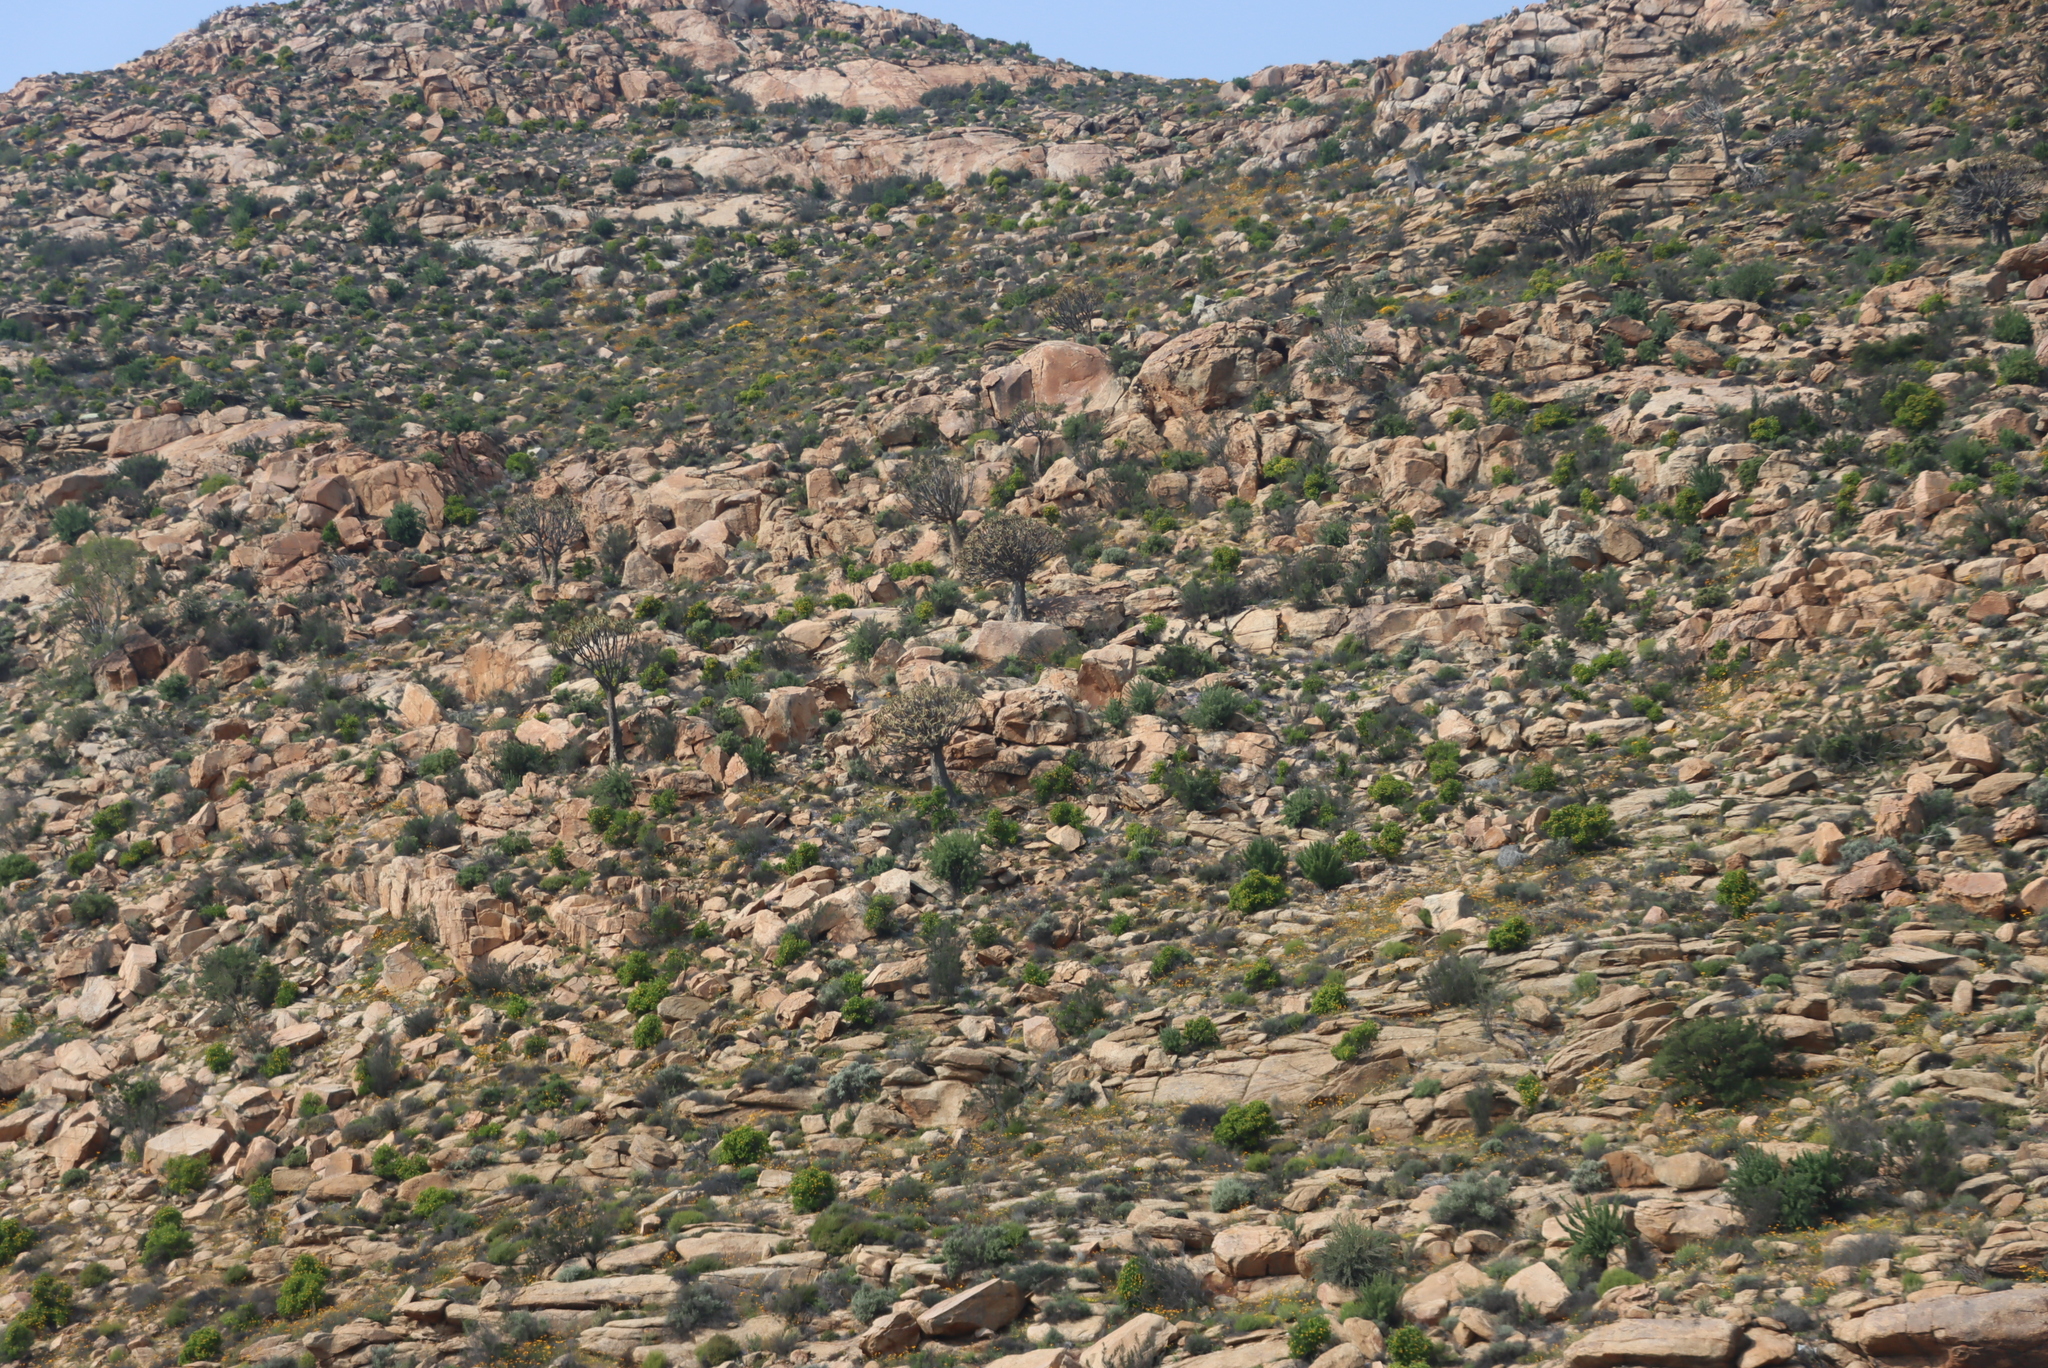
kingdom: Plantae
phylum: Tracheophyta
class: Liliopsida
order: Asparagales
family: Asphodelaceae
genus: Aloidendron
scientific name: Aloidendron dichotomum
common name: Quiver tree
